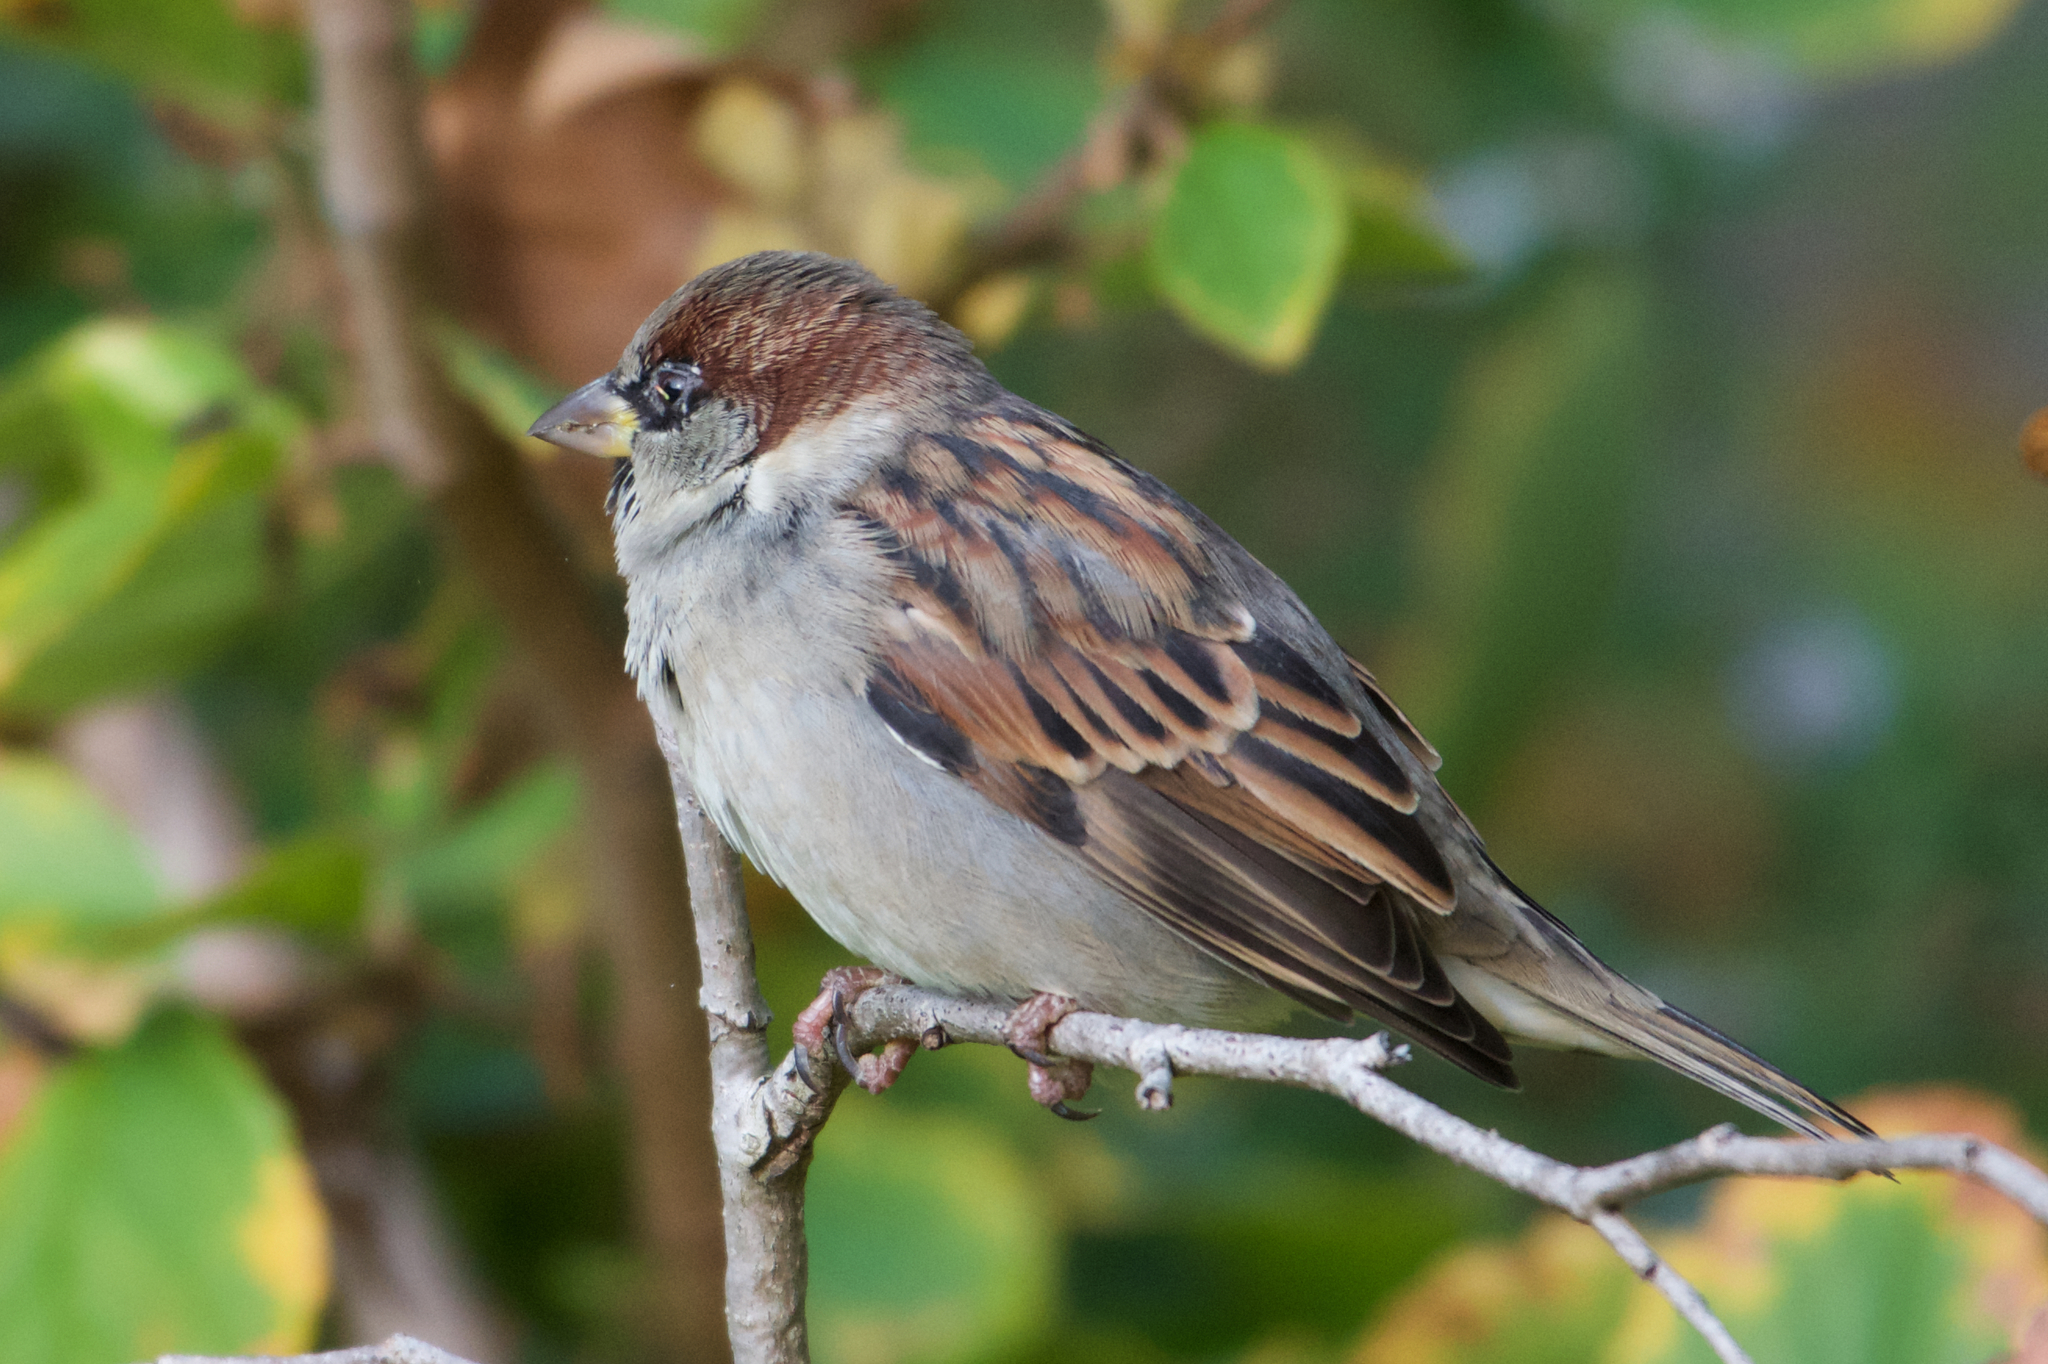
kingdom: Animalia
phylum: Chordata
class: Aves
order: Passeriformes
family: Passeridae
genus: Passer
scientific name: Passer domesticus
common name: House sparrow
